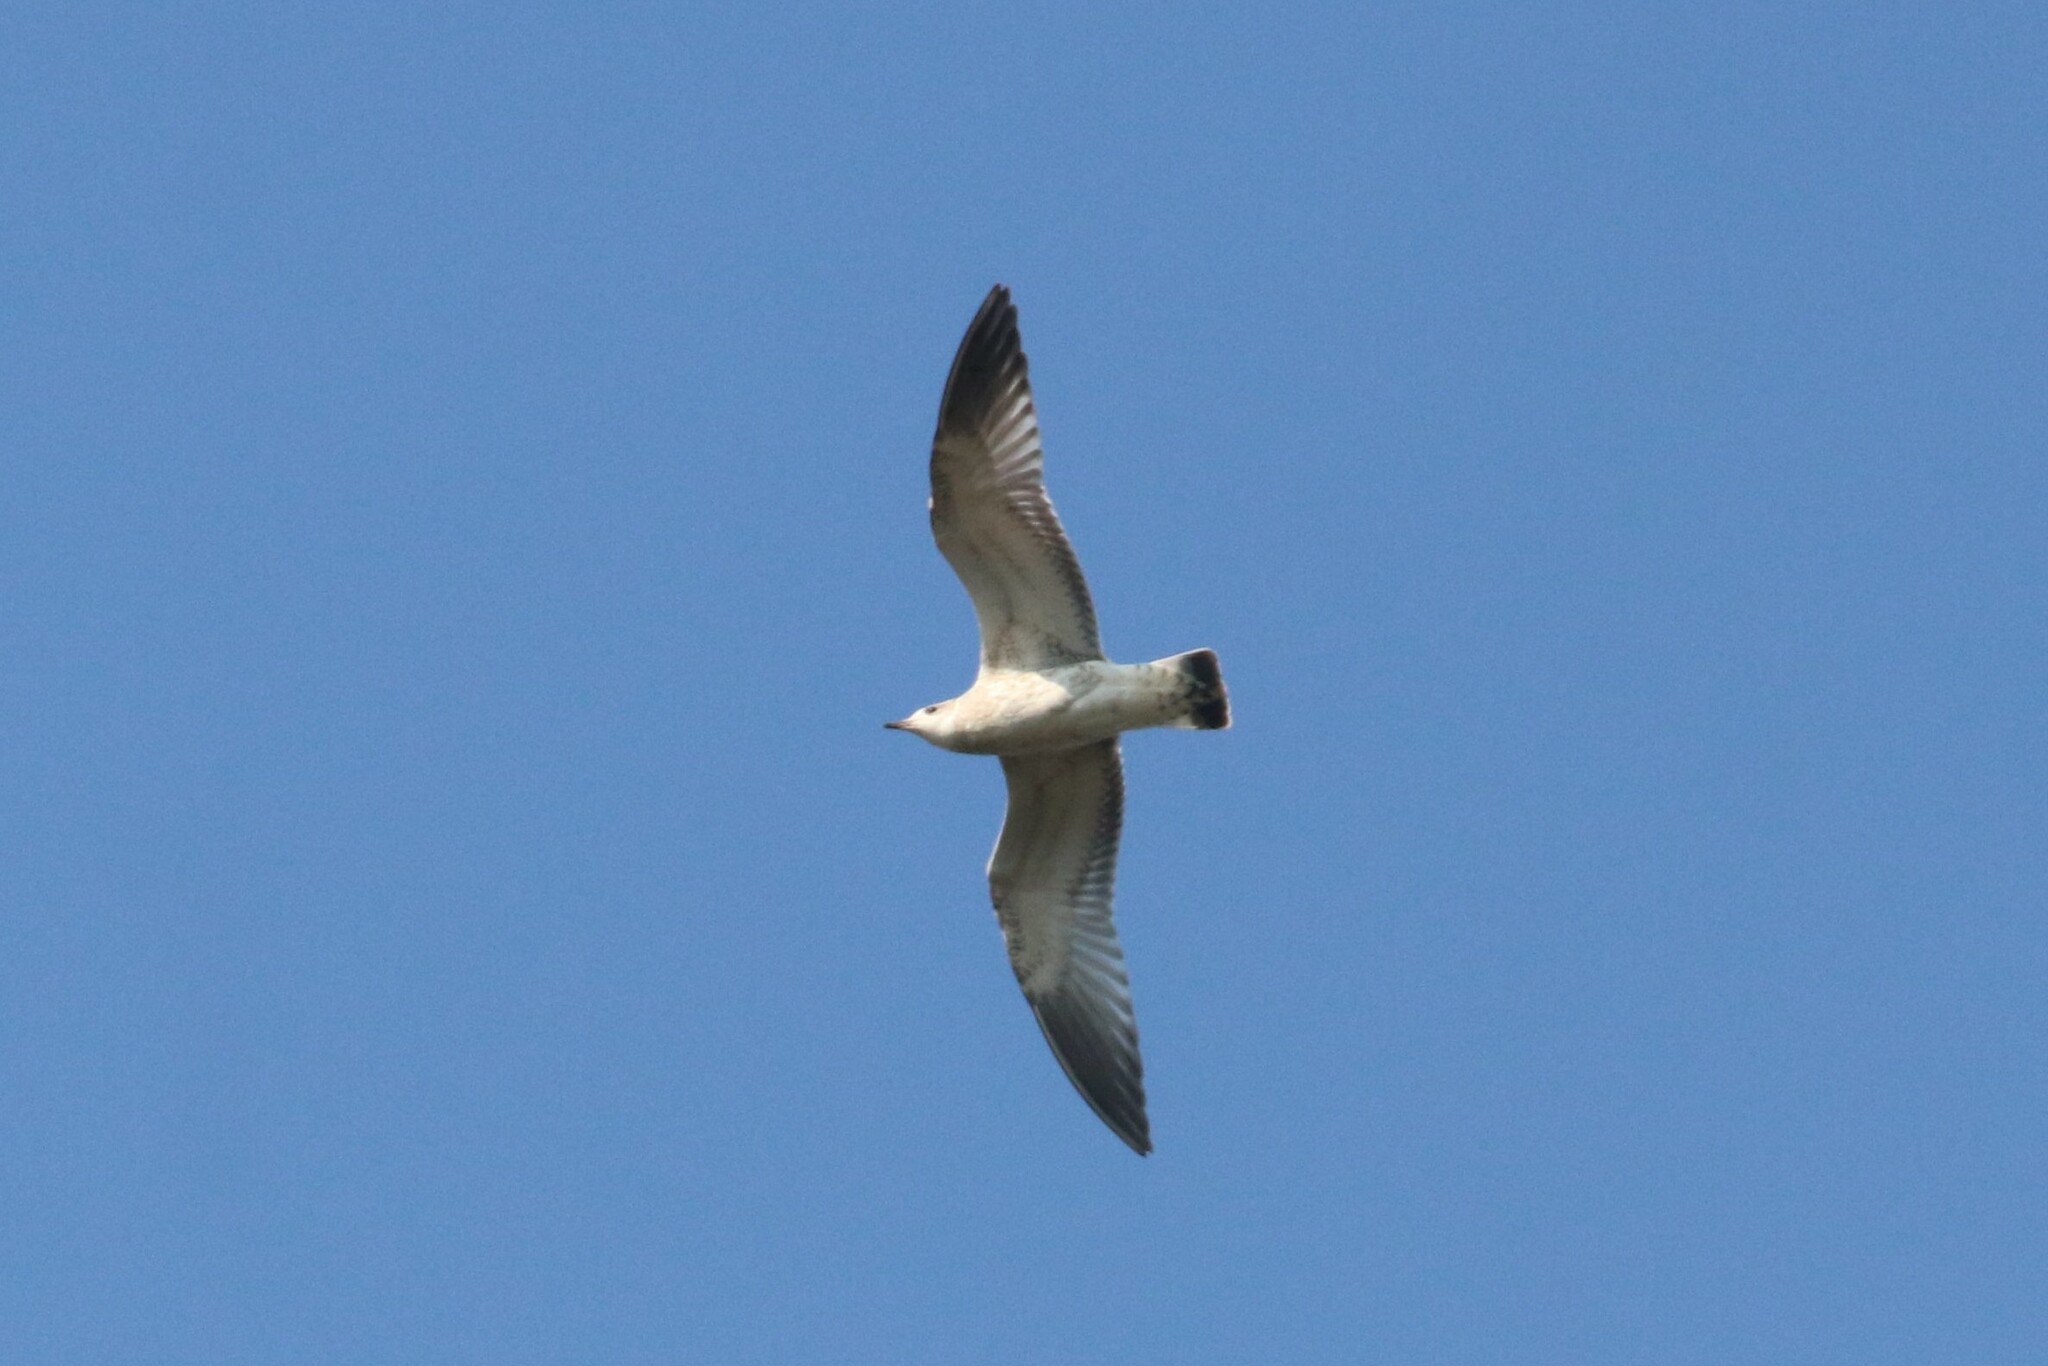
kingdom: Animalia
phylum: Chordata
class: Aves
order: Charadriiformes
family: Laridae
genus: Larus
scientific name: Larus canus
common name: Mew gull
